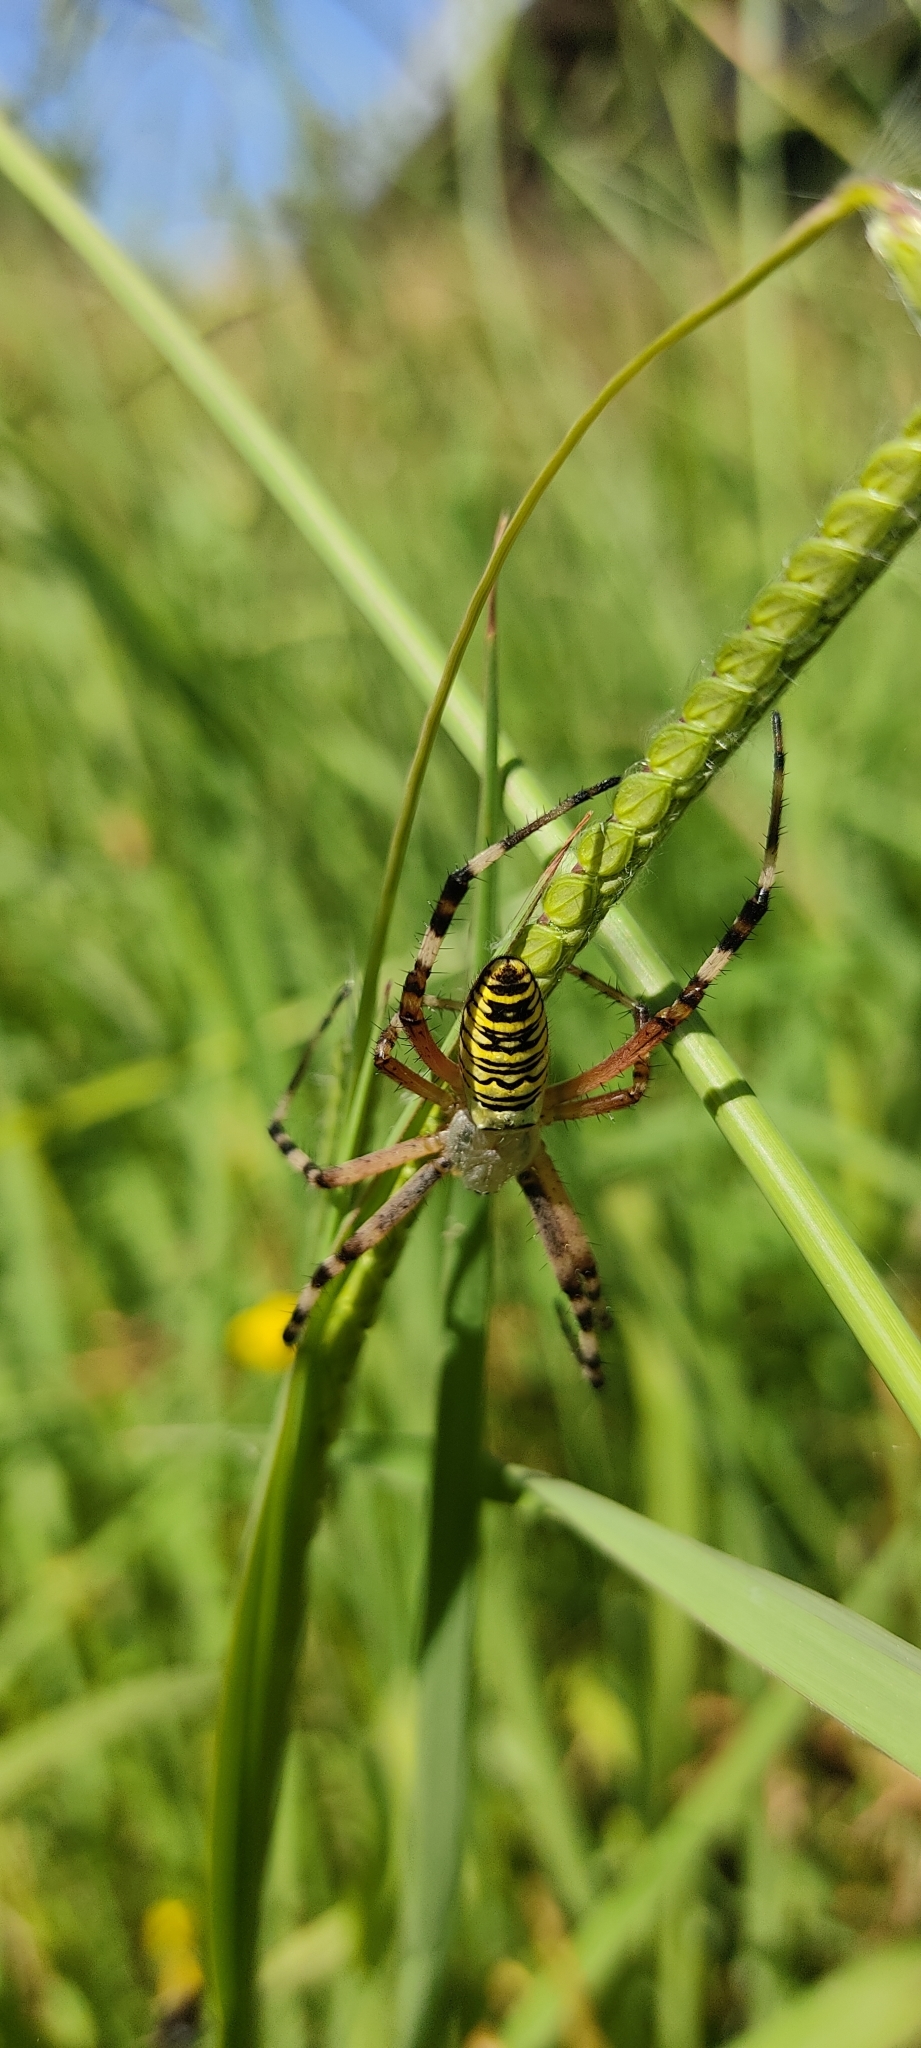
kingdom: Animalia
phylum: Arthropoda
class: Arachnida
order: Araneae
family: Araneidae
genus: Argiope
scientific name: Argiope bruennichi
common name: Wasp spider
